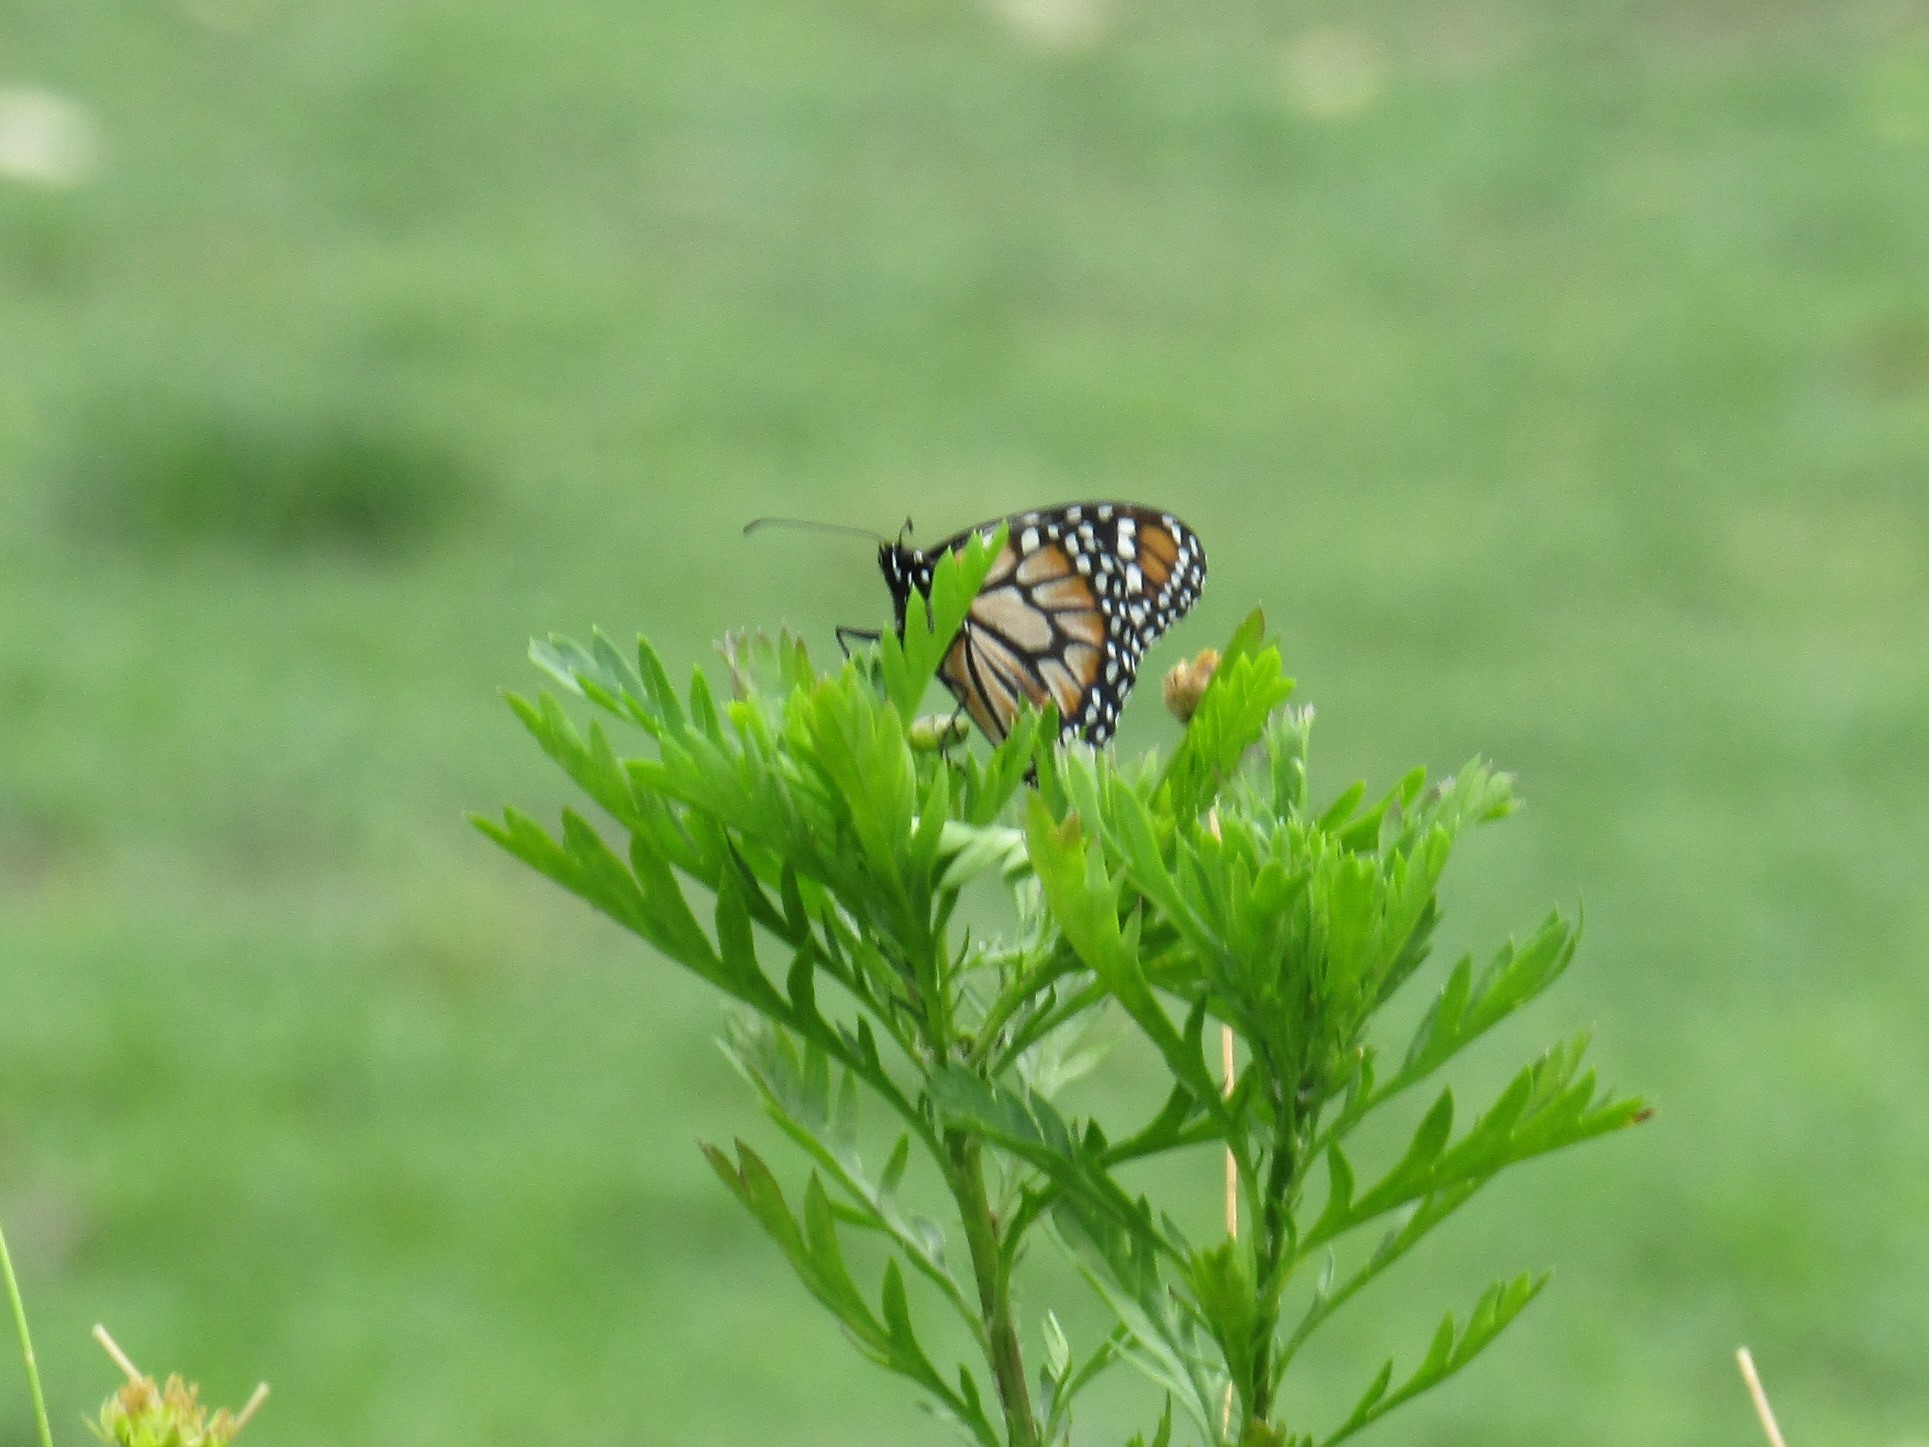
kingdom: Animalia
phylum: Arthropoda
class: Insecta
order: Lepidoptera
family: Nymphalidae
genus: Danaus
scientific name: Danaus erippus
